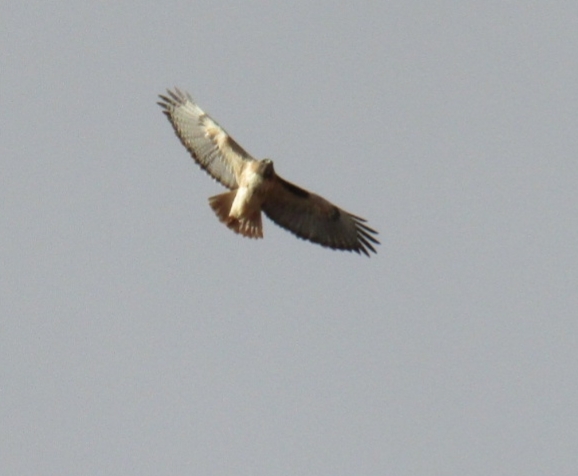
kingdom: Animalia
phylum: Chordata
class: Aves
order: Accipitriformes
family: Accipitridae
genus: Buteo
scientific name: Buteo jamaicensis
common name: Red-tailed hawk
